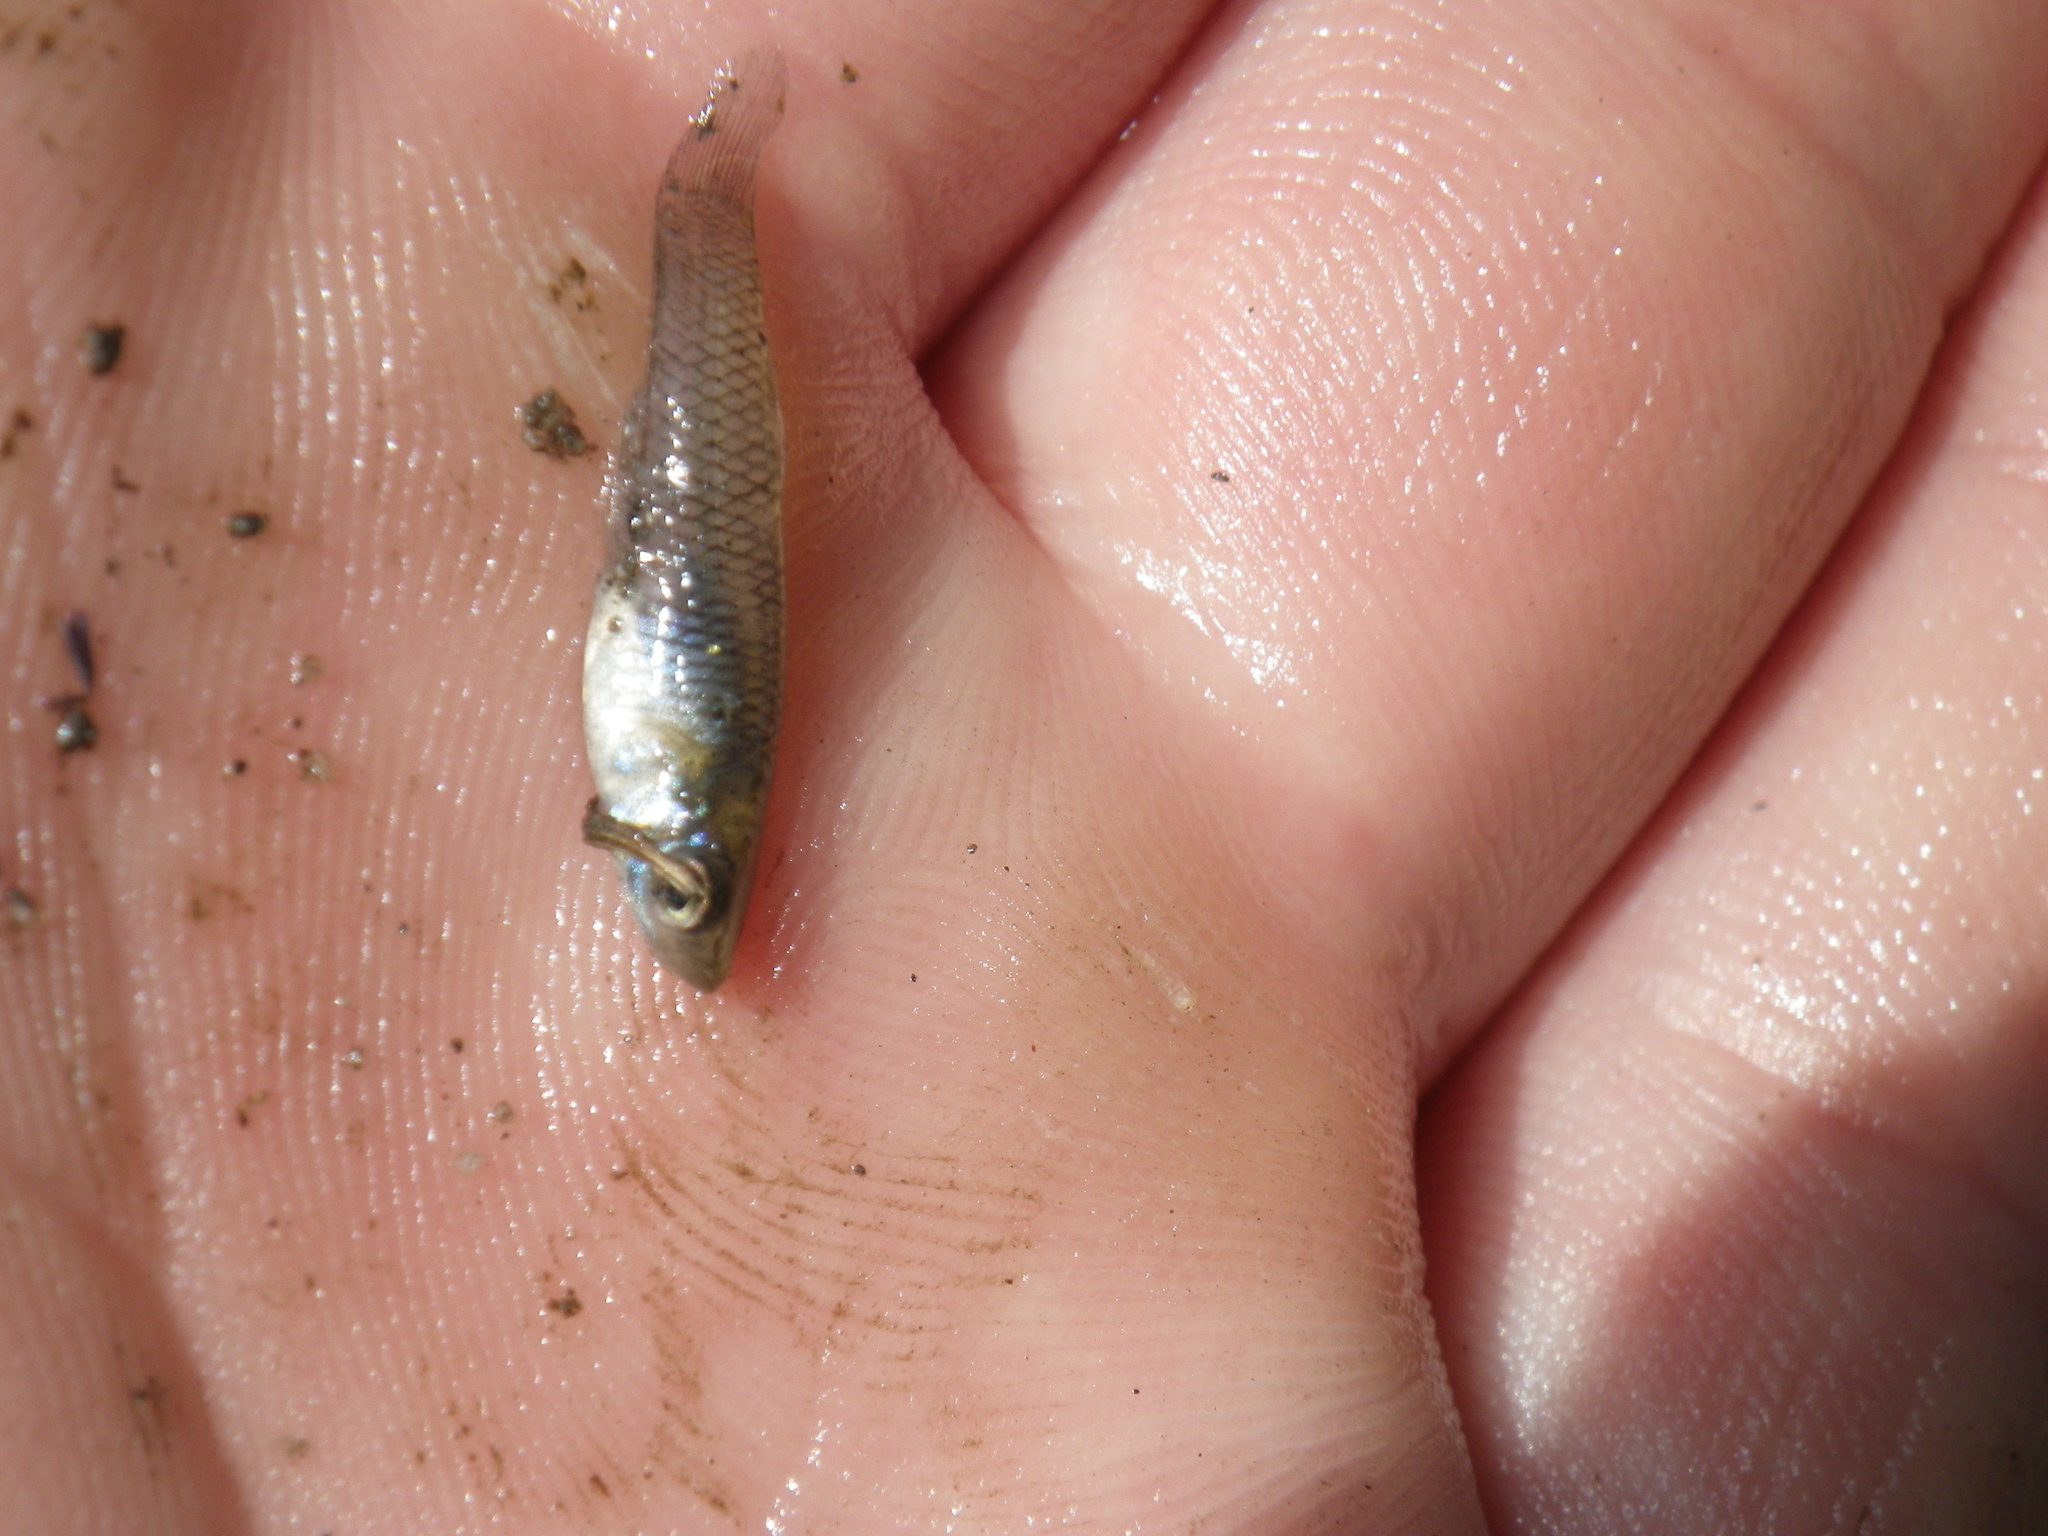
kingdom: Animalia
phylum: Chordata
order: Cyprinodontiformes
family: Poeciliidae
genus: Gambusia
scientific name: Gambusia affinis
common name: Mosquitofish
